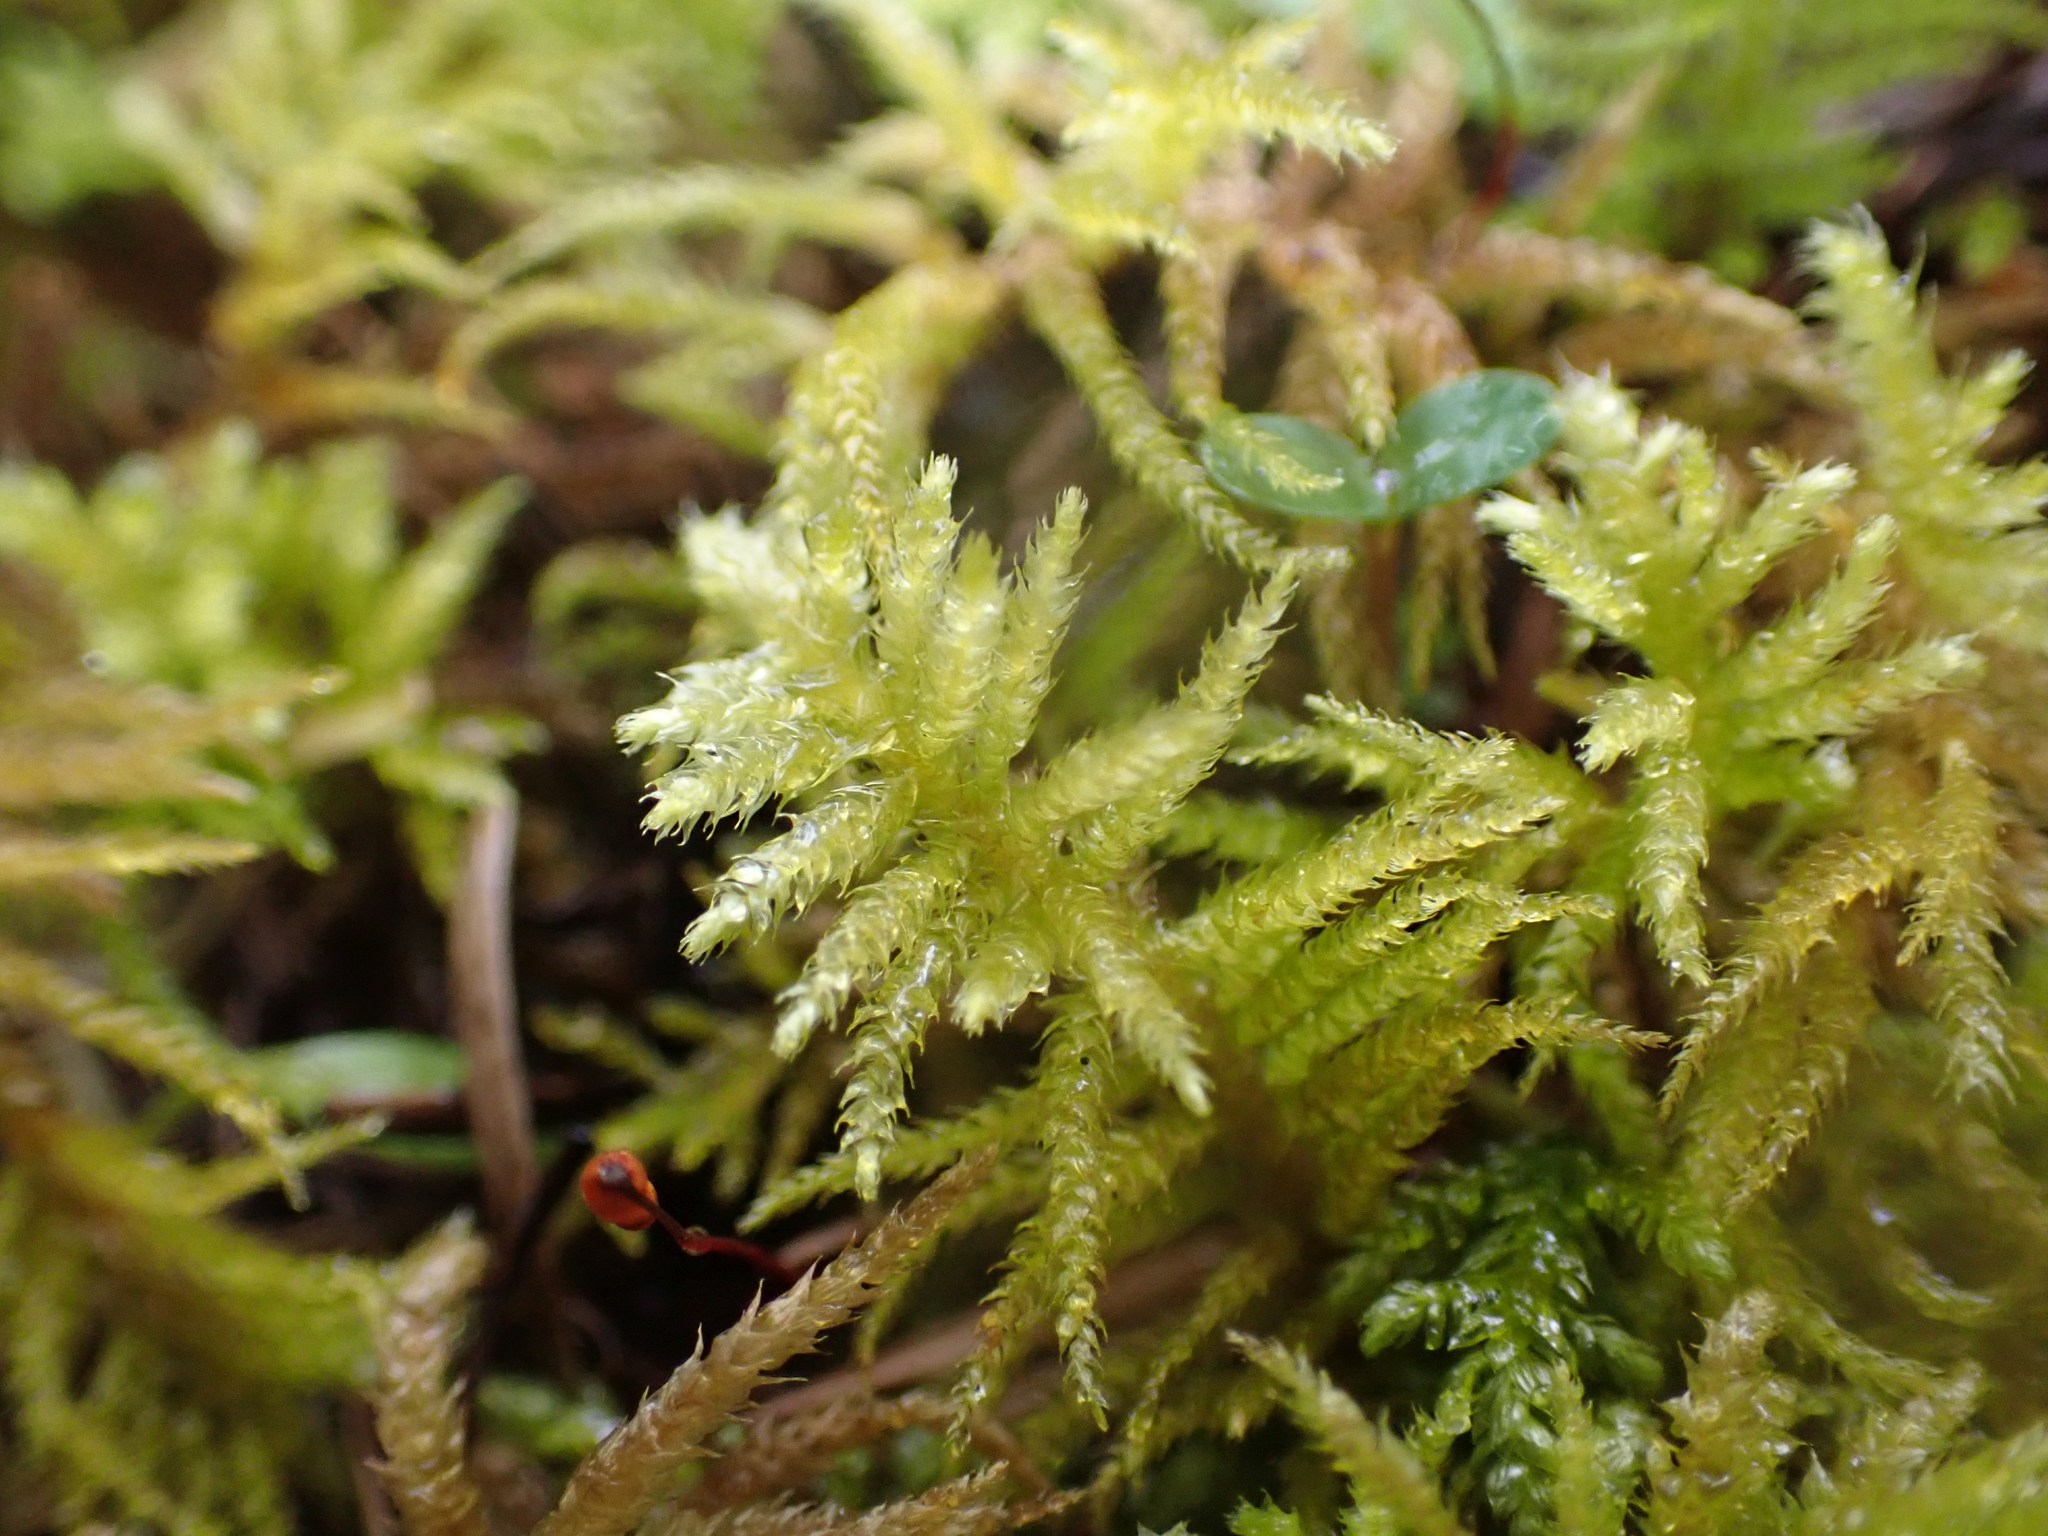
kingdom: Plantae
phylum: Bryophyta
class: Bryopsida
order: Hypnales
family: Brachytheciaceae
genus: Kindbergia
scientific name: Kindbergia oregana
